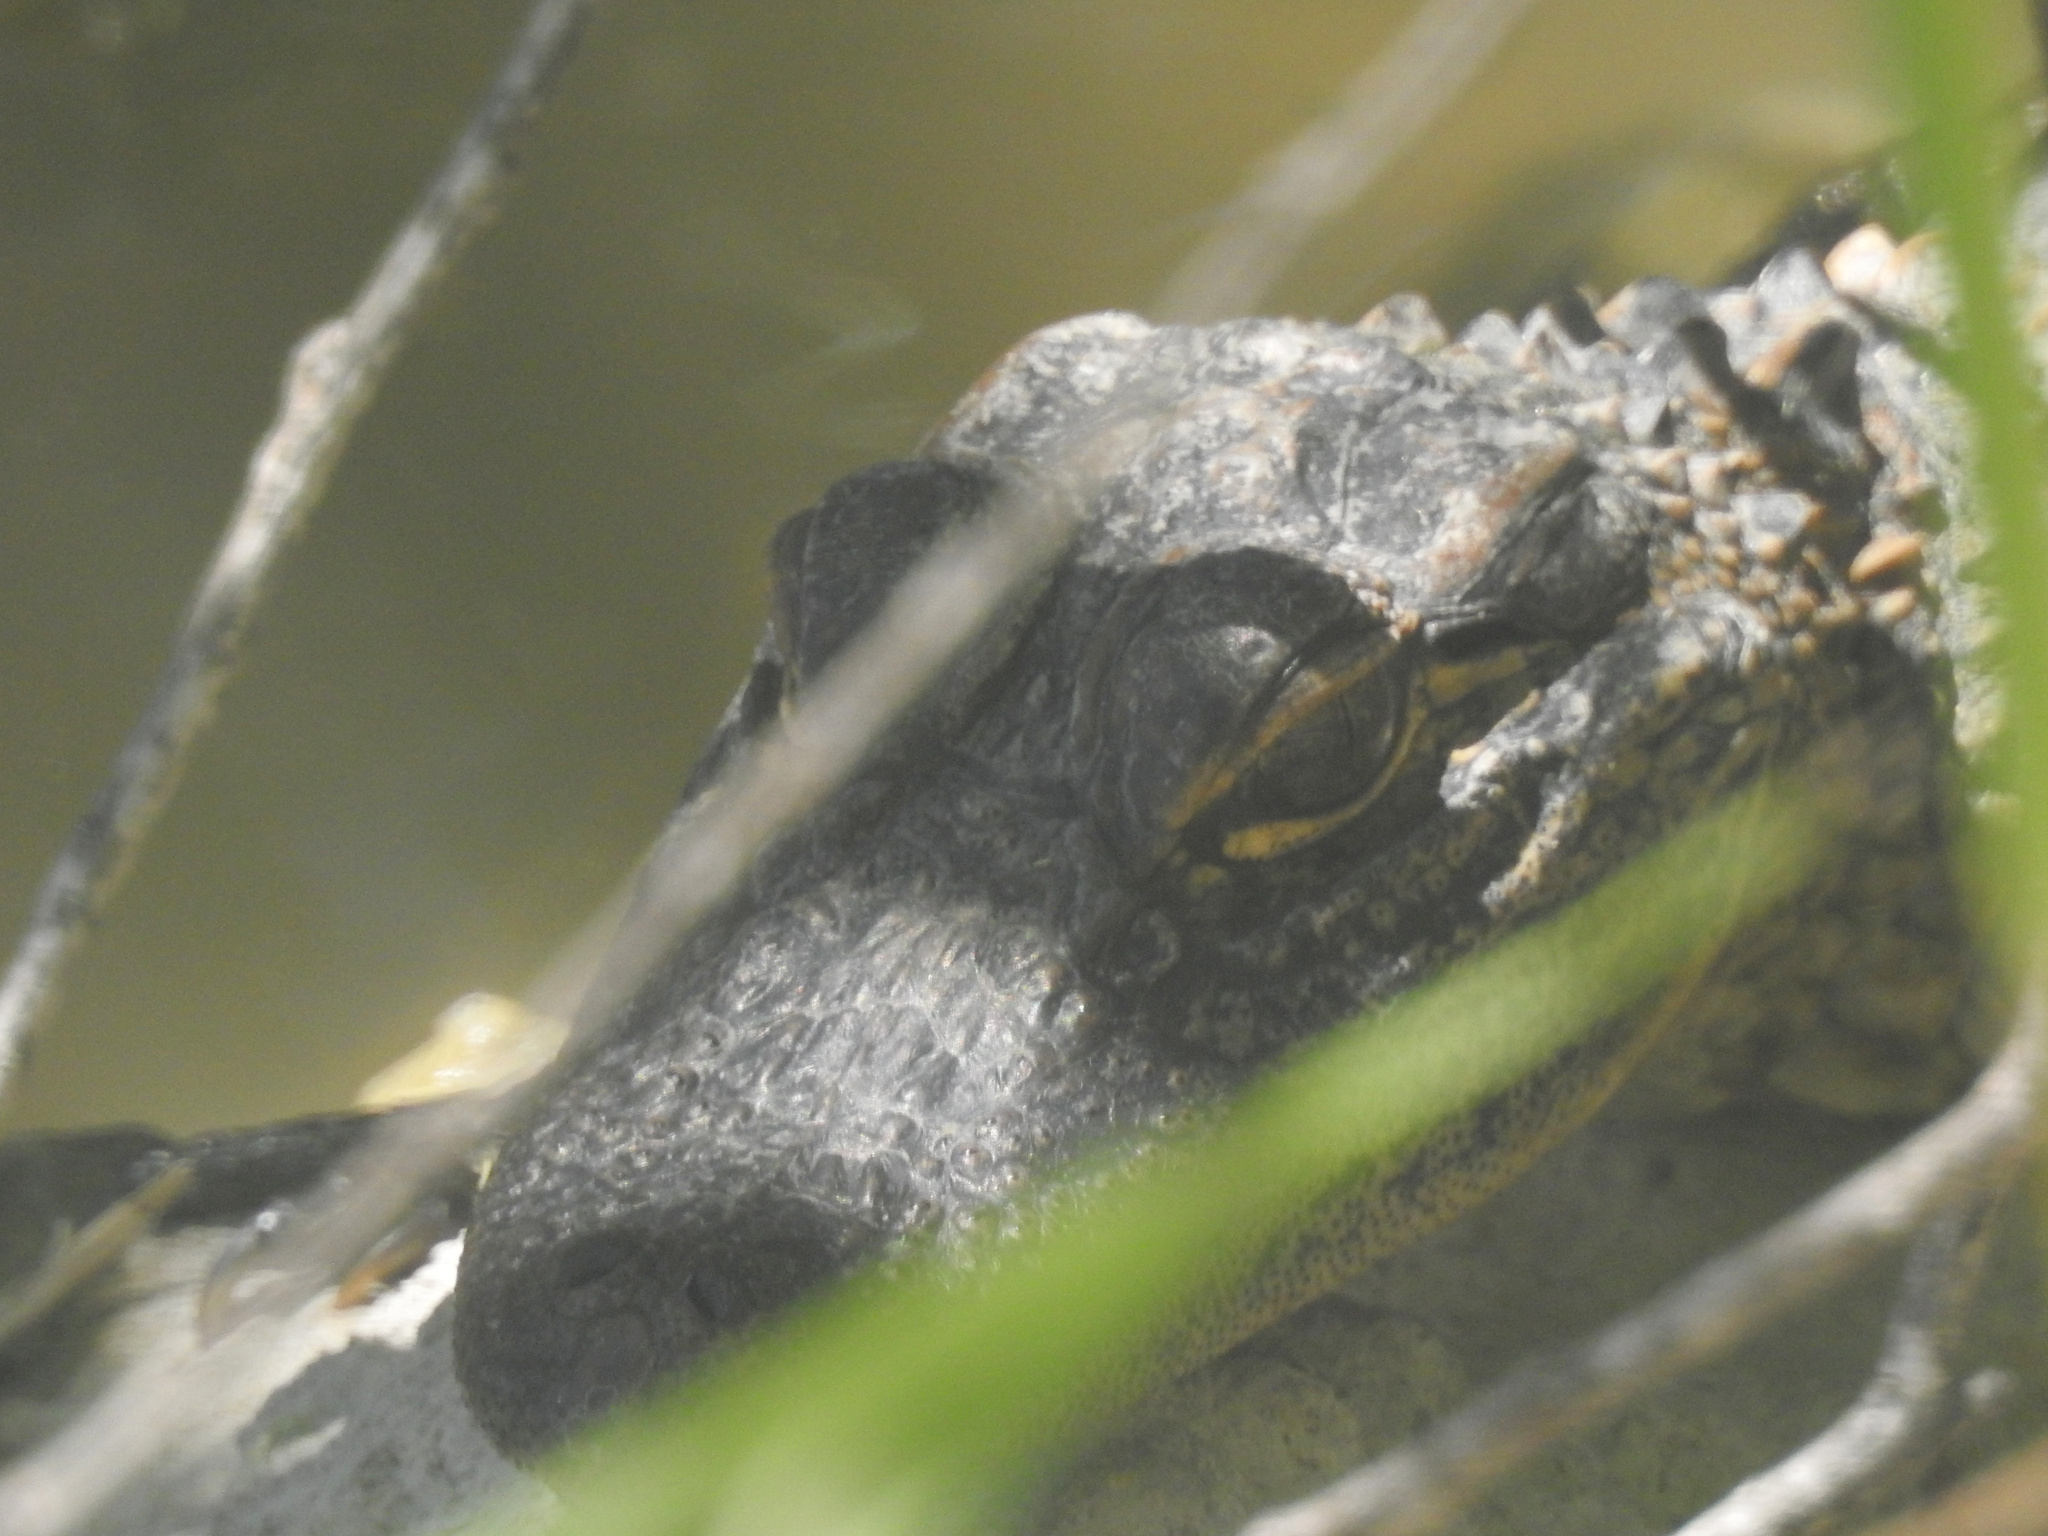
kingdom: Animalia
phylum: Chordata
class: Crocodylia
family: Alligatoridae
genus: Alligator
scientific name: Alligator mississippiensis
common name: American alligator
